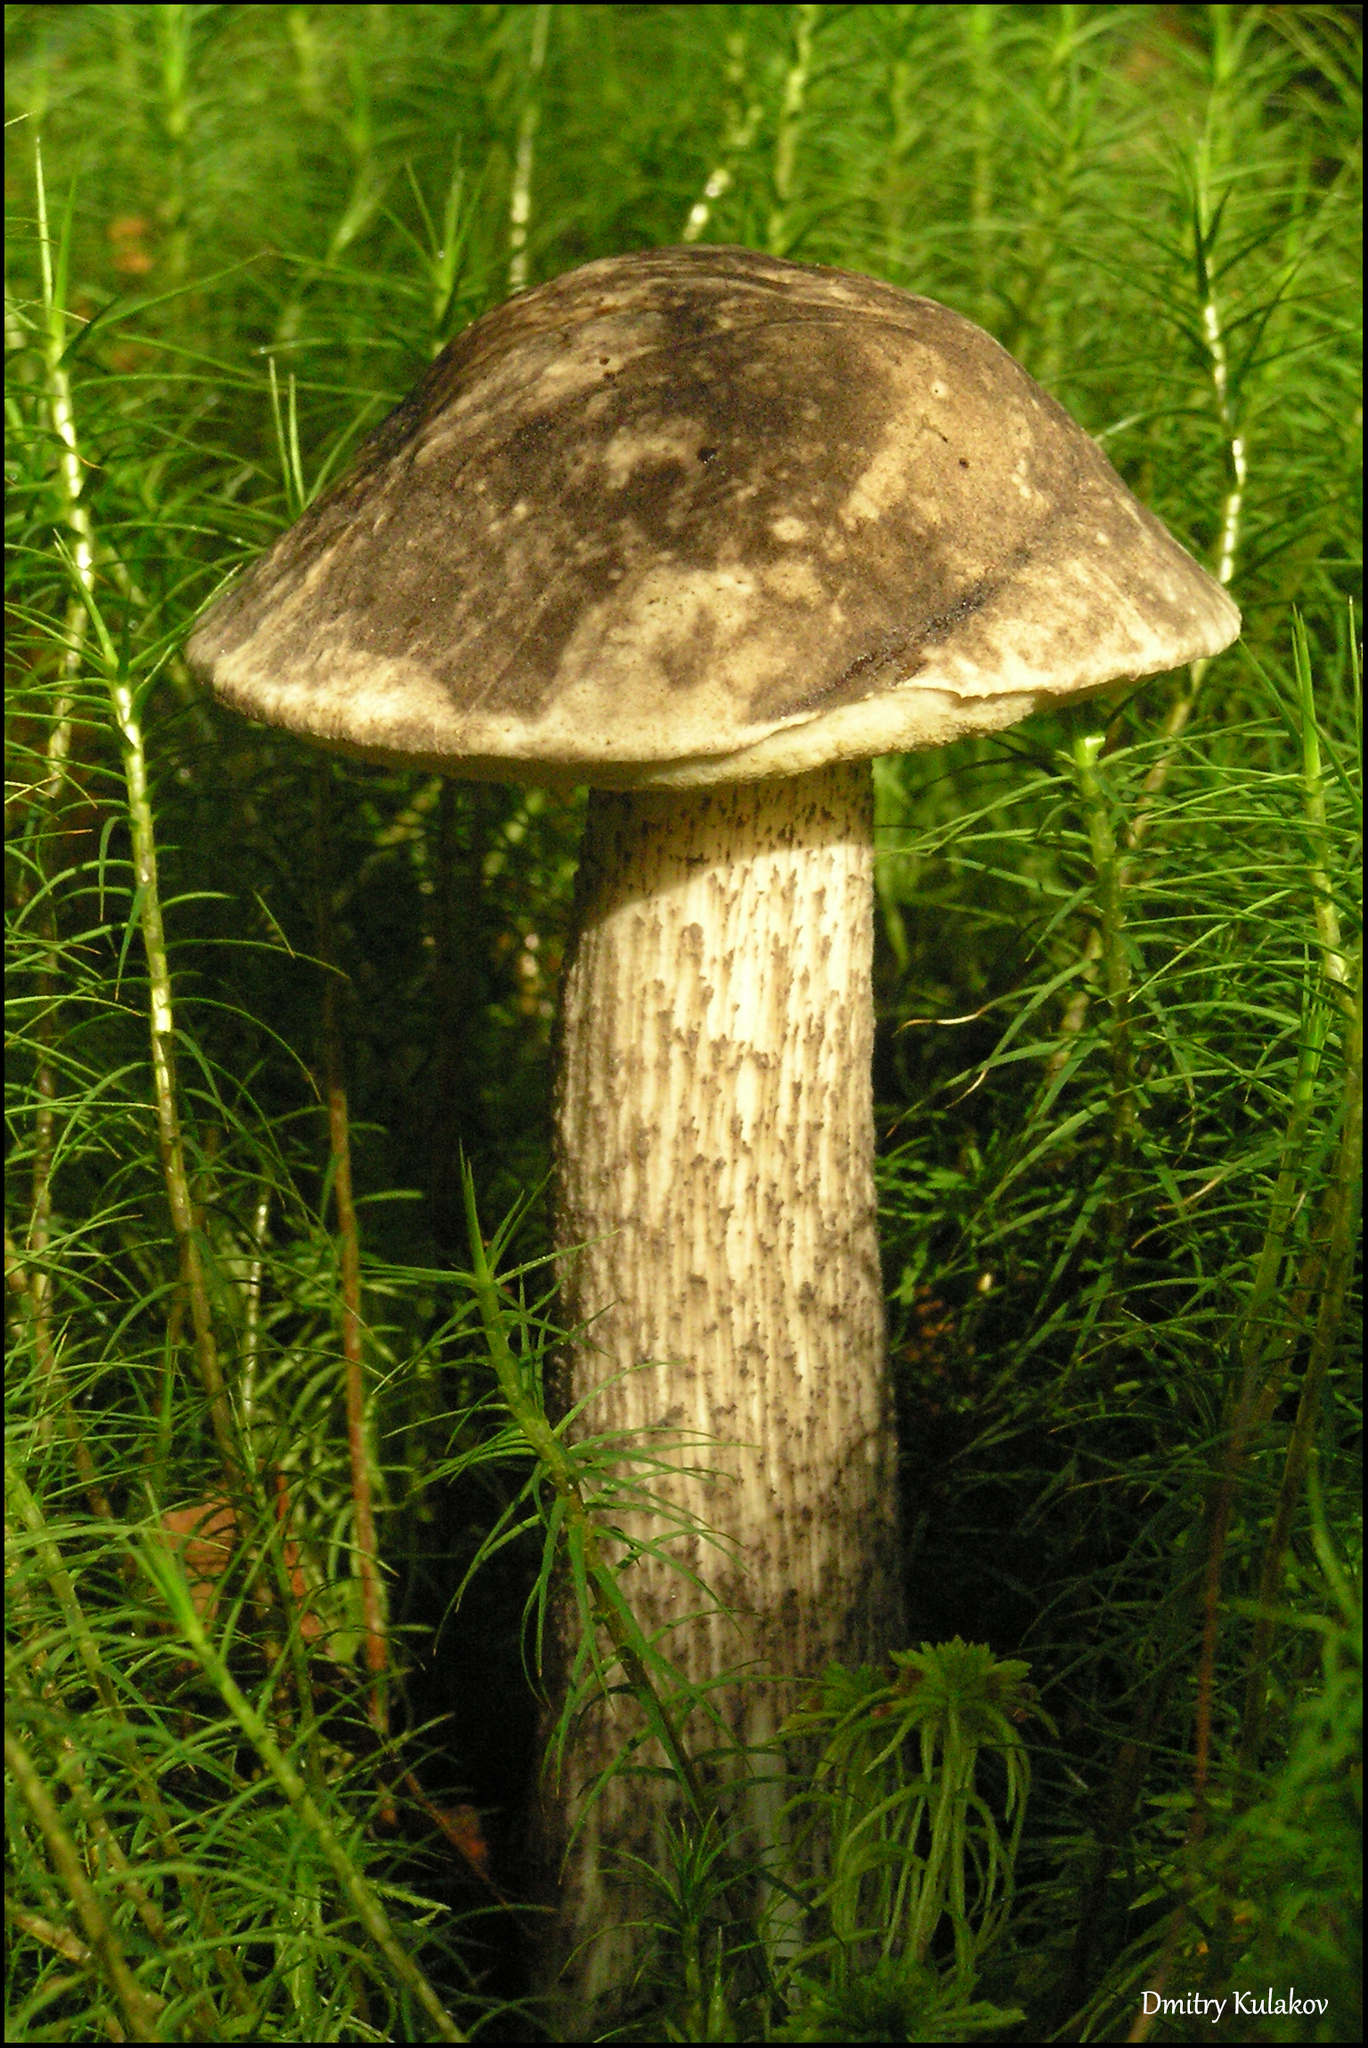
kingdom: Fungi
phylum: Basidiomycota
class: Agaricomycetes
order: Boletales
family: Boletaceae
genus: Leccinum
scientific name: Leccinum variicolor
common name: Mottled bolete
